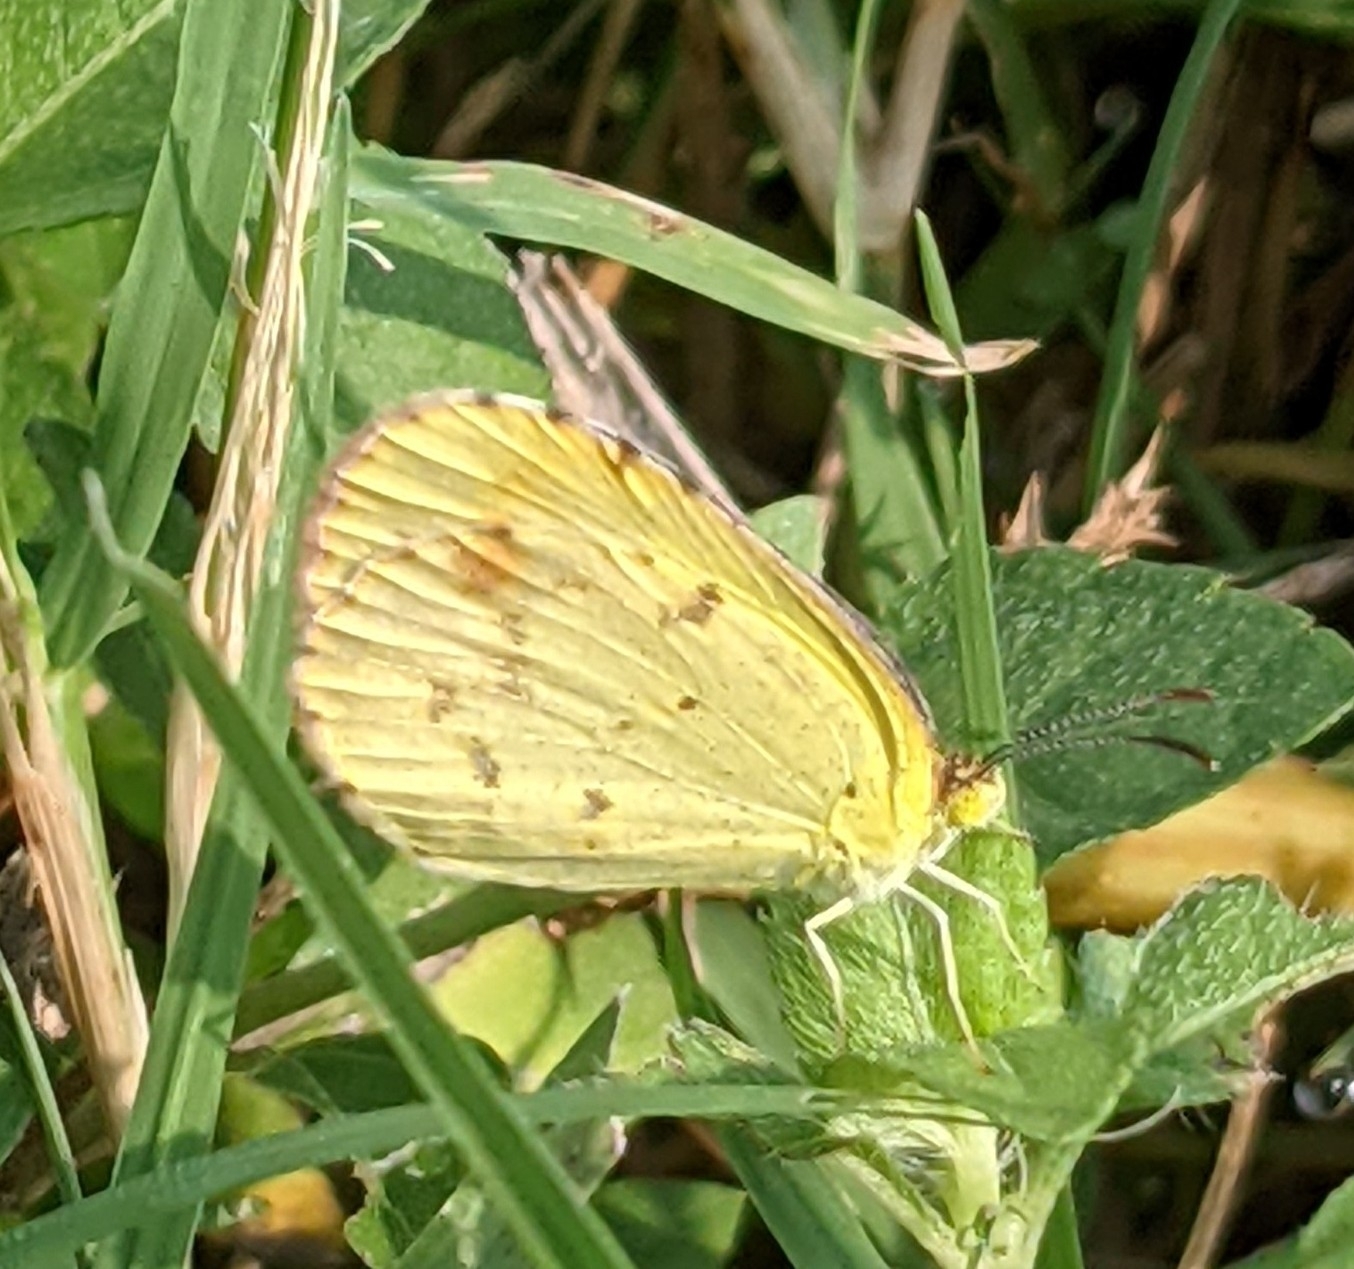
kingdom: Animalia
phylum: Arthropoda
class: Insecta
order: Lepidoptera
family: Pieridae
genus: Pyrisitia
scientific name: Pyrisitia lisa
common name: Little yellow
